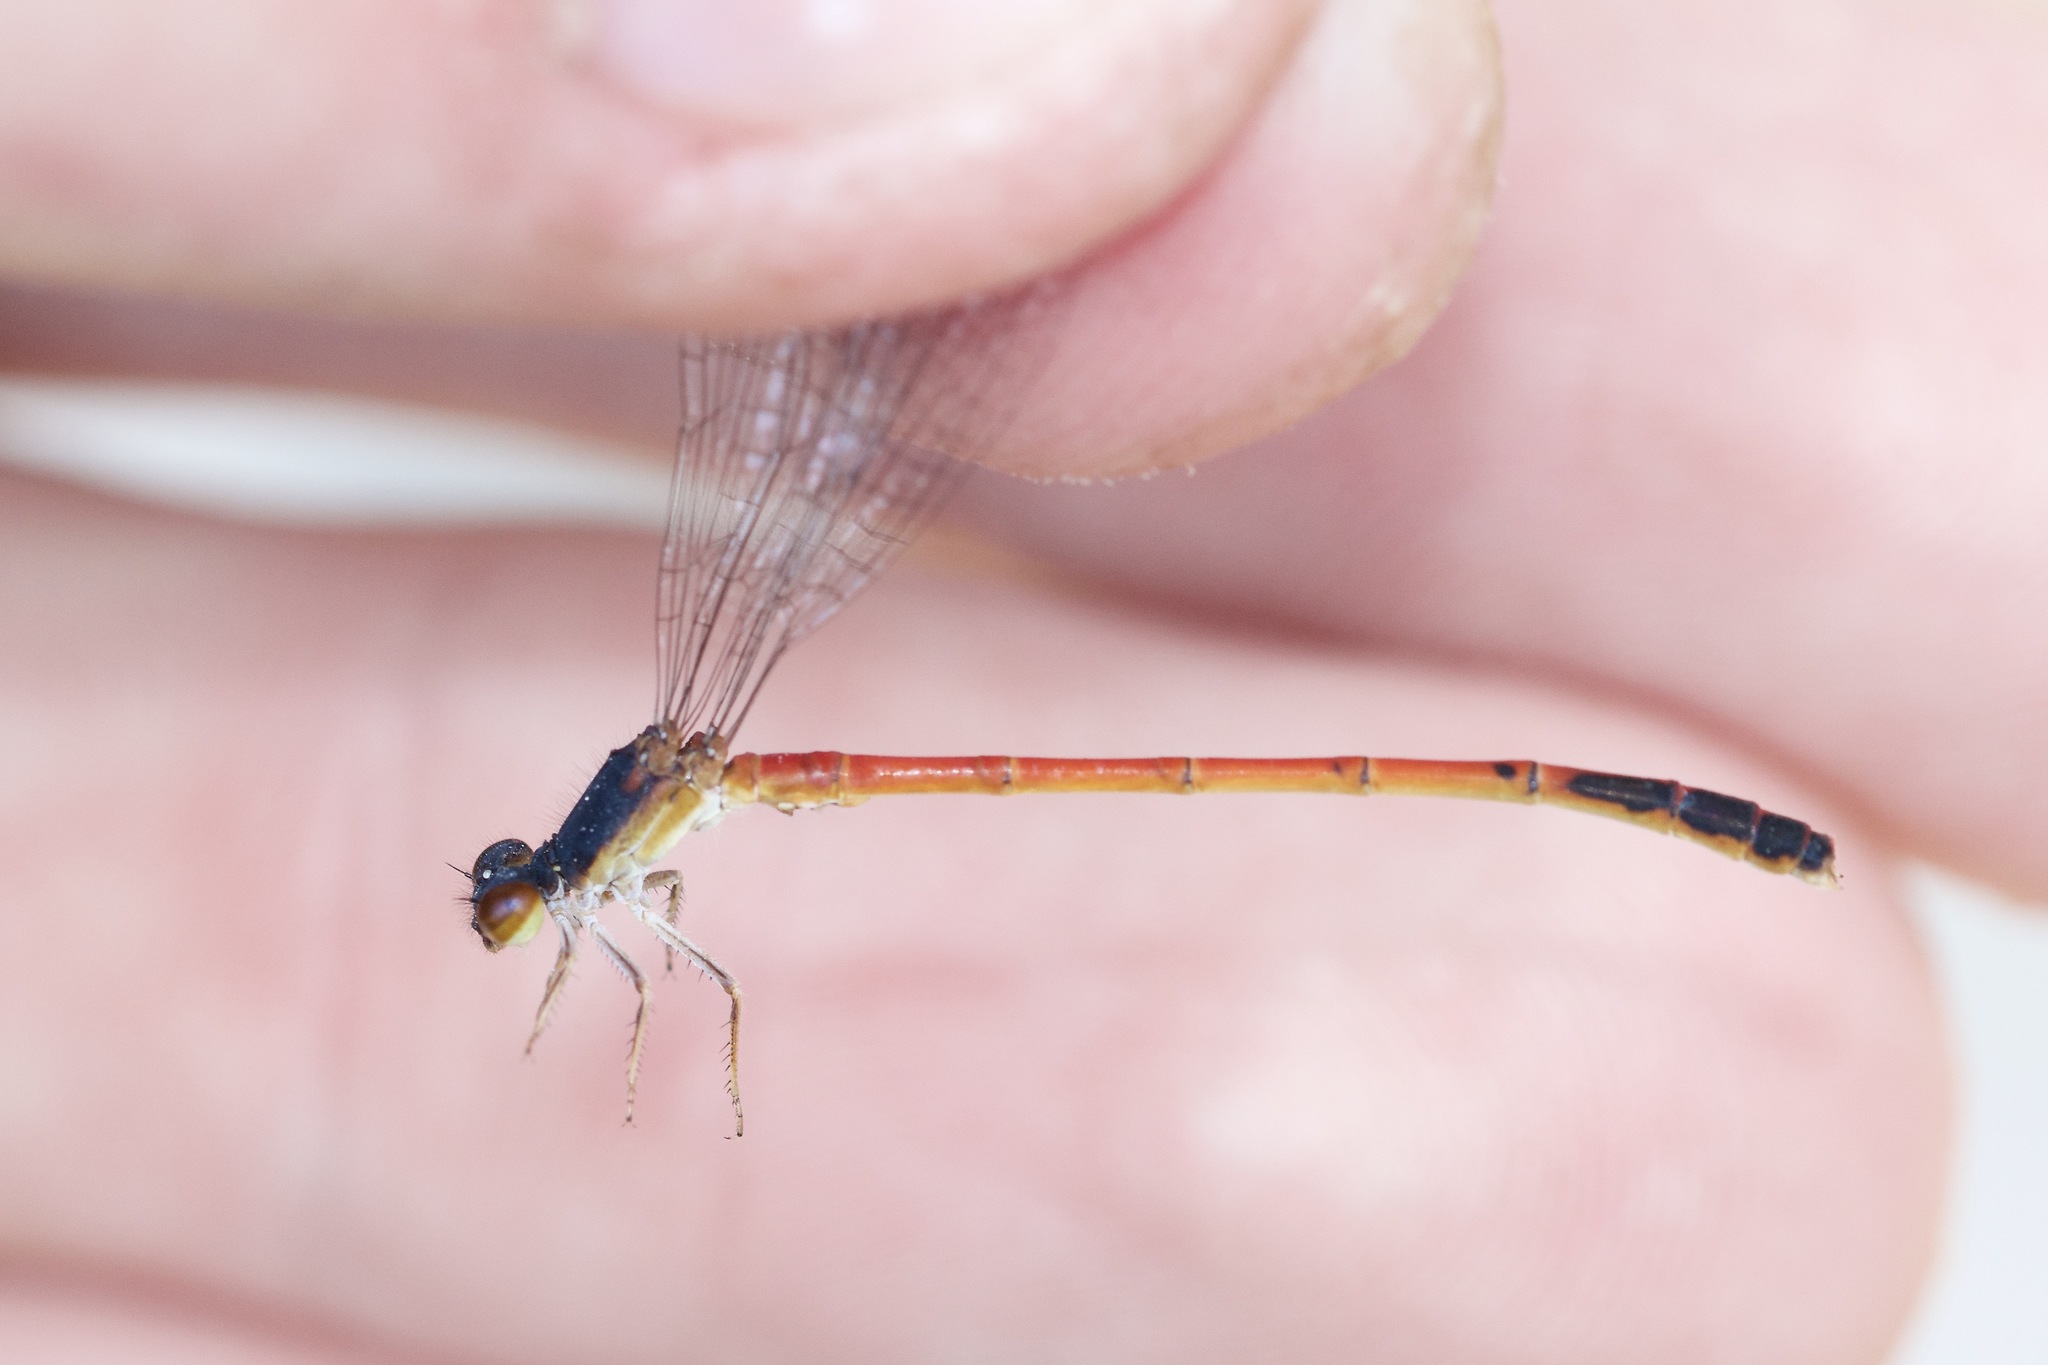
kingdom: Animalia
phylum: Arthropoda
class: Insecta
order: Odonata
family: Coenagrionidae
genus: Amphiagrion
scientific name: Amphiagrion saucium
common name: Eastern red damsel
